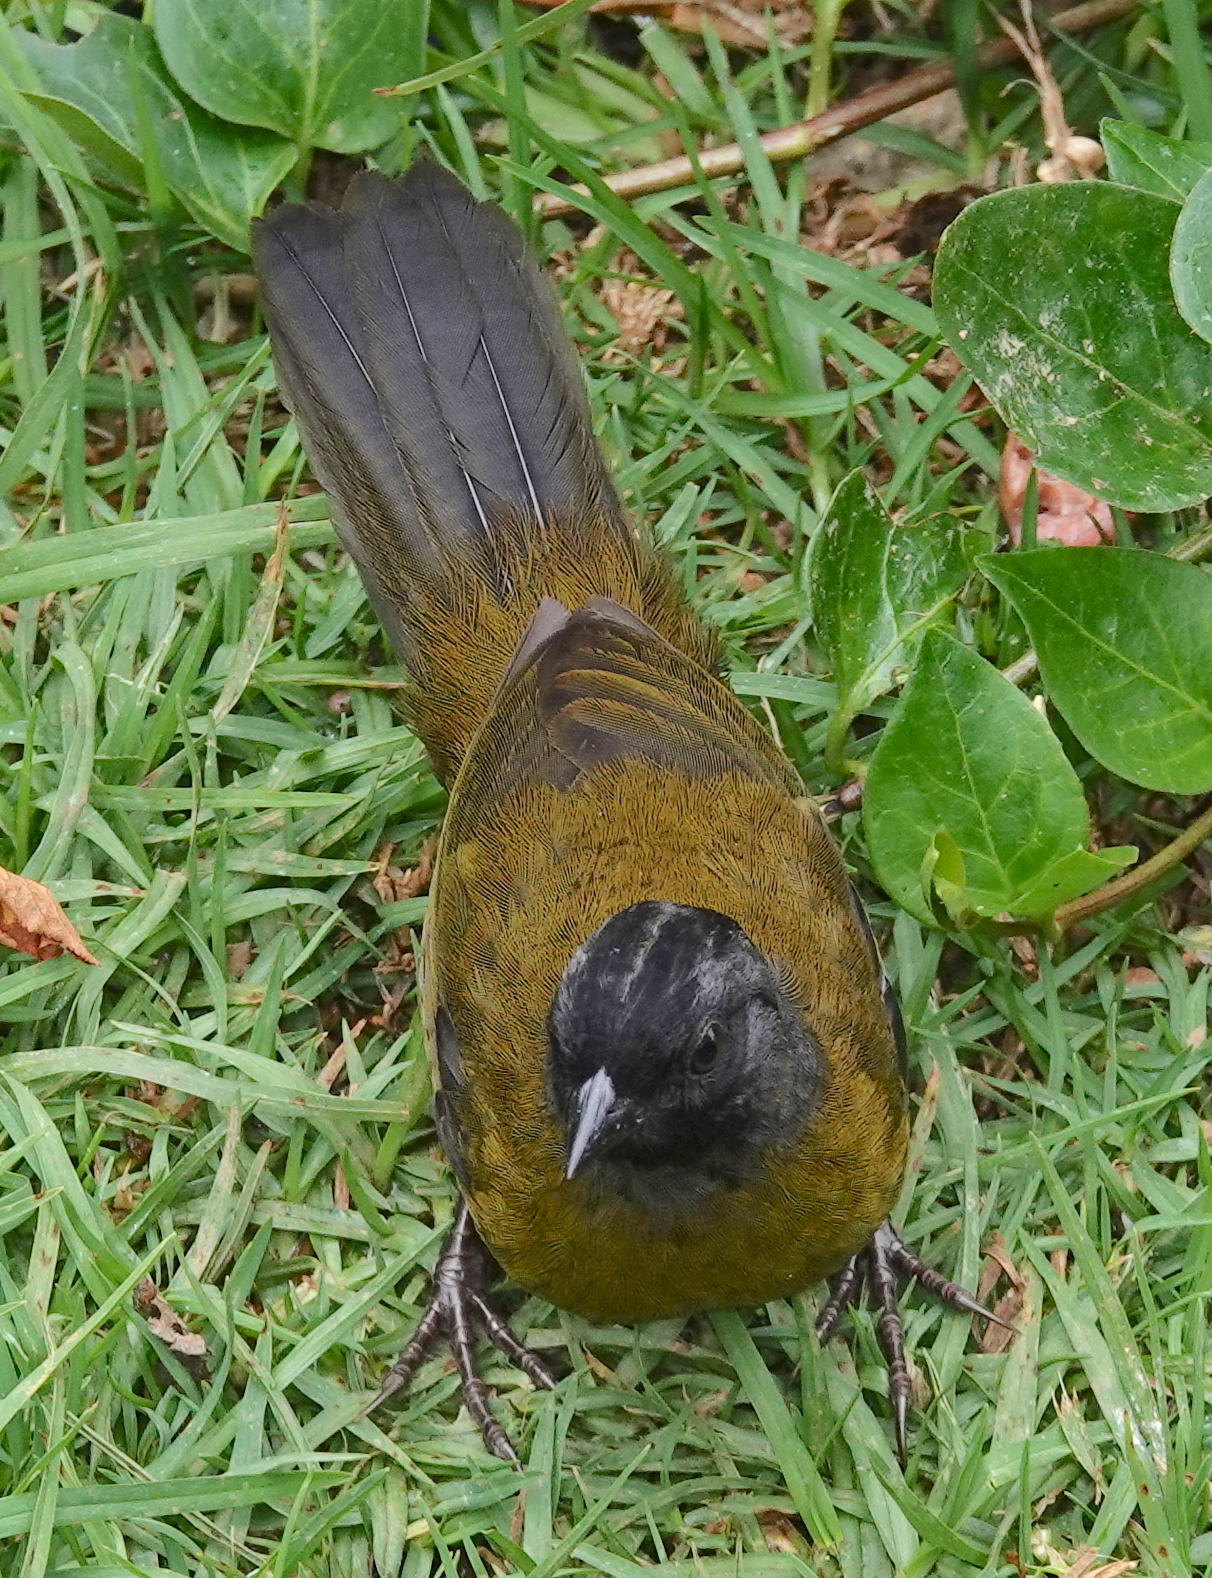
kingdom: Animalia
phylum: Chordata
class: Aves
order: Passeriformes
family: Passerellidae
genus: Pezopetes
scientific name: Pezopetes capitalis
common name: Large-footed finch
